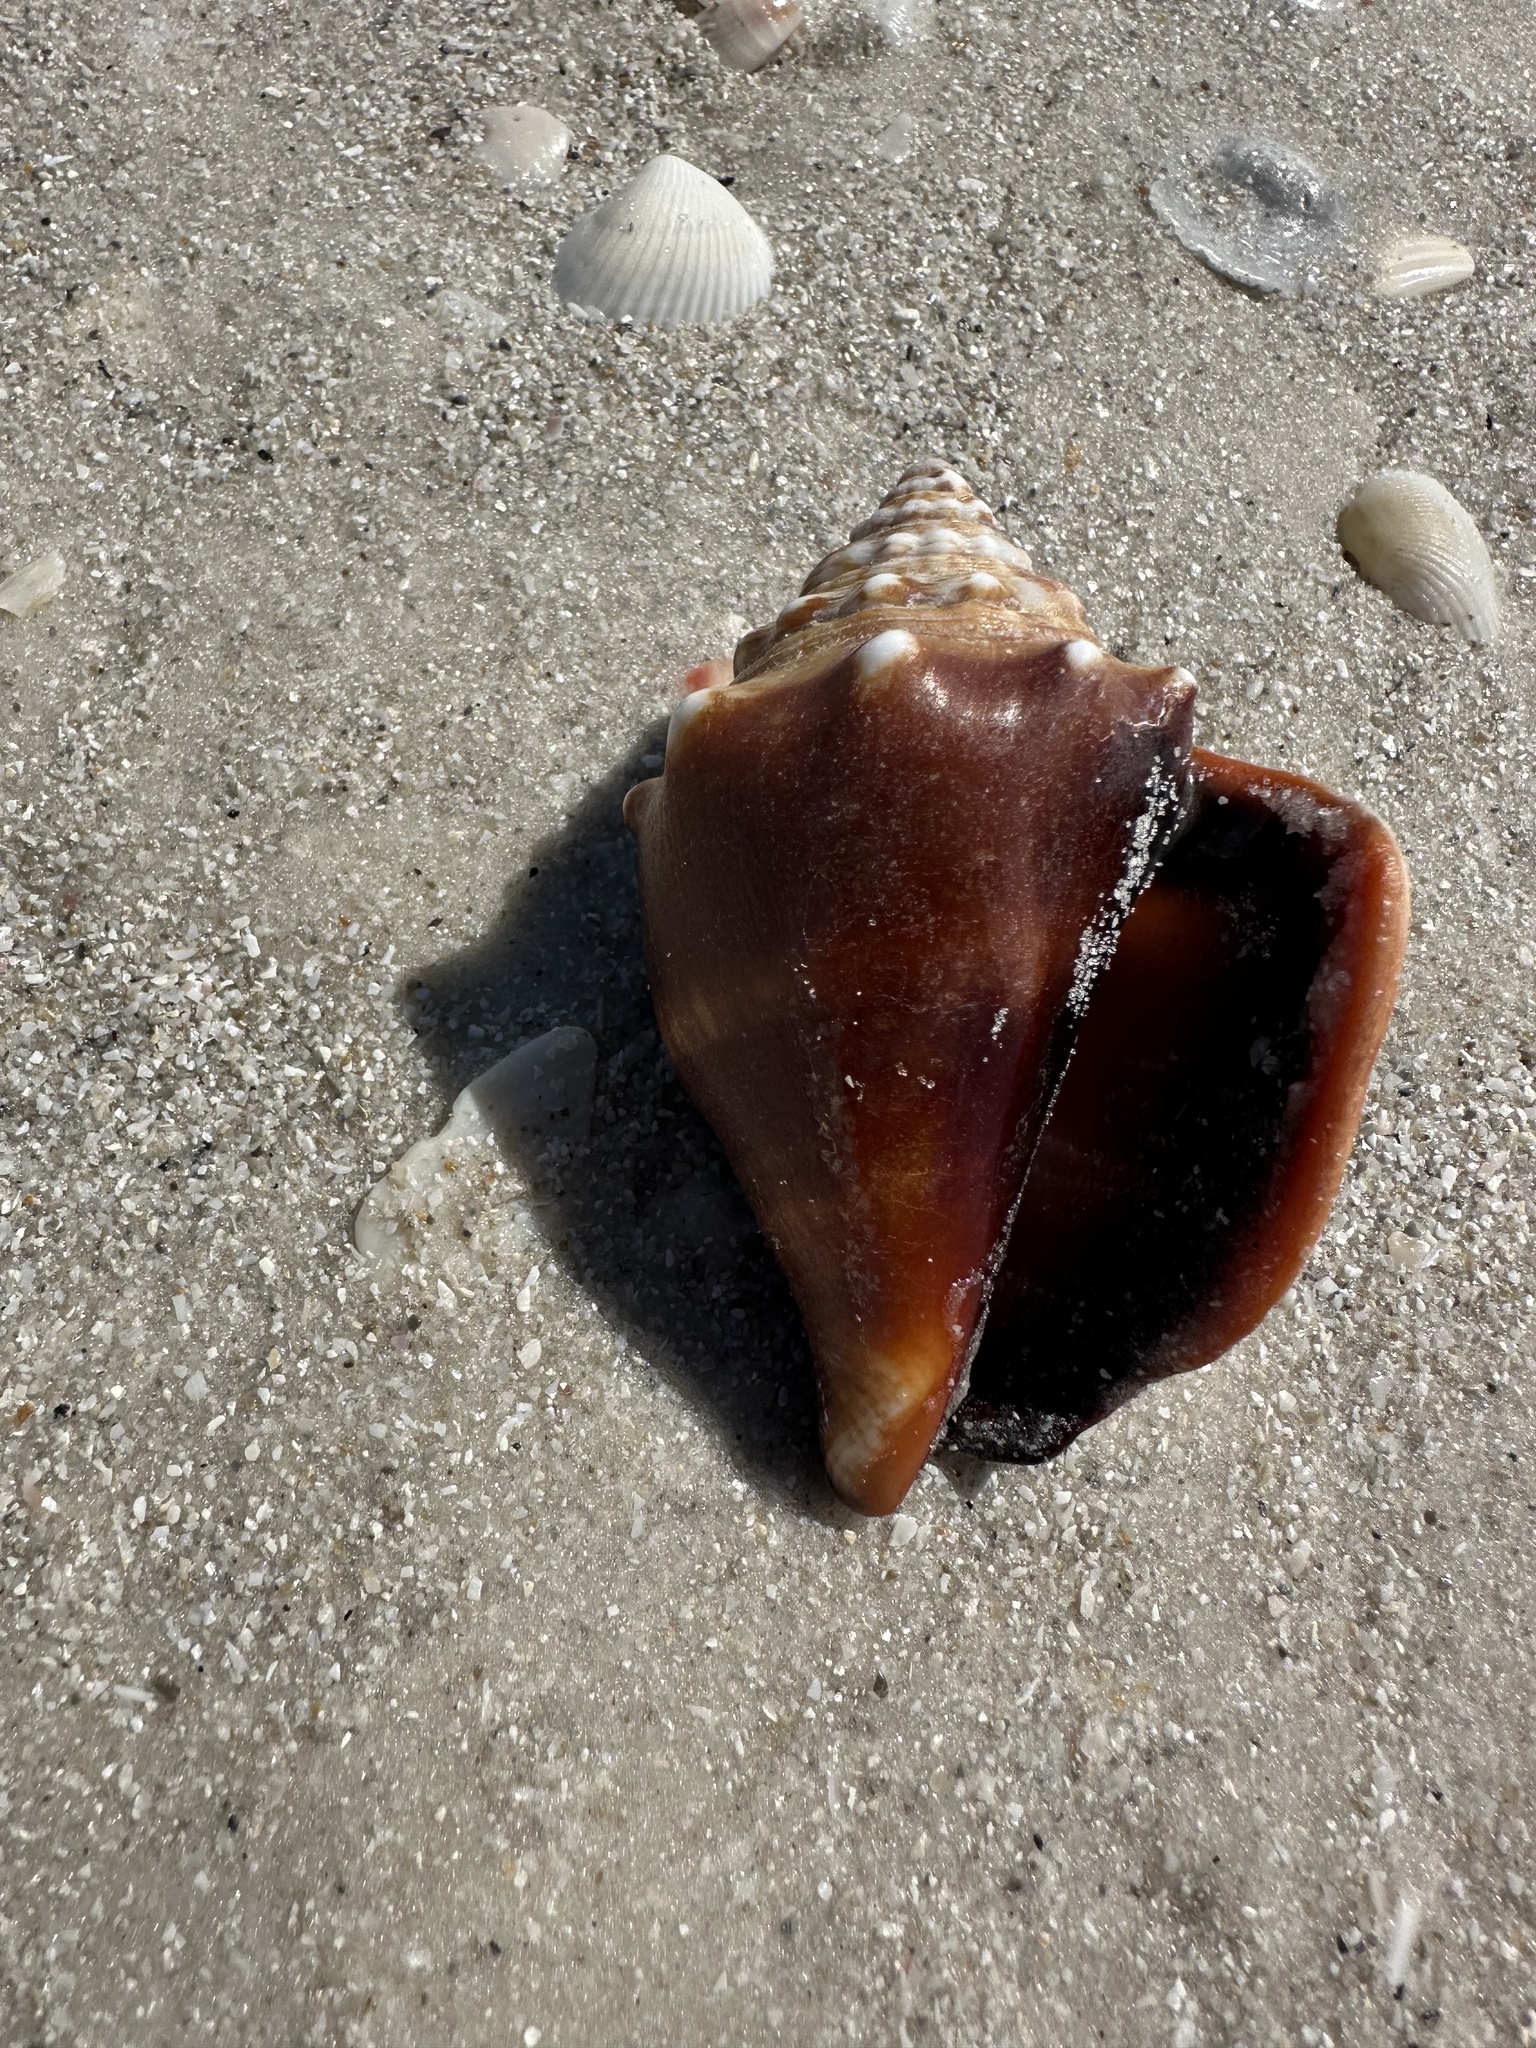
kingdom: Animalia
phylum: Mollusca
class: Gastropoda
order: Littorinimorpha
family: Strombidae
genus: Strombus
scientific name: Strombus alatus
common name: Florida fighting conch
